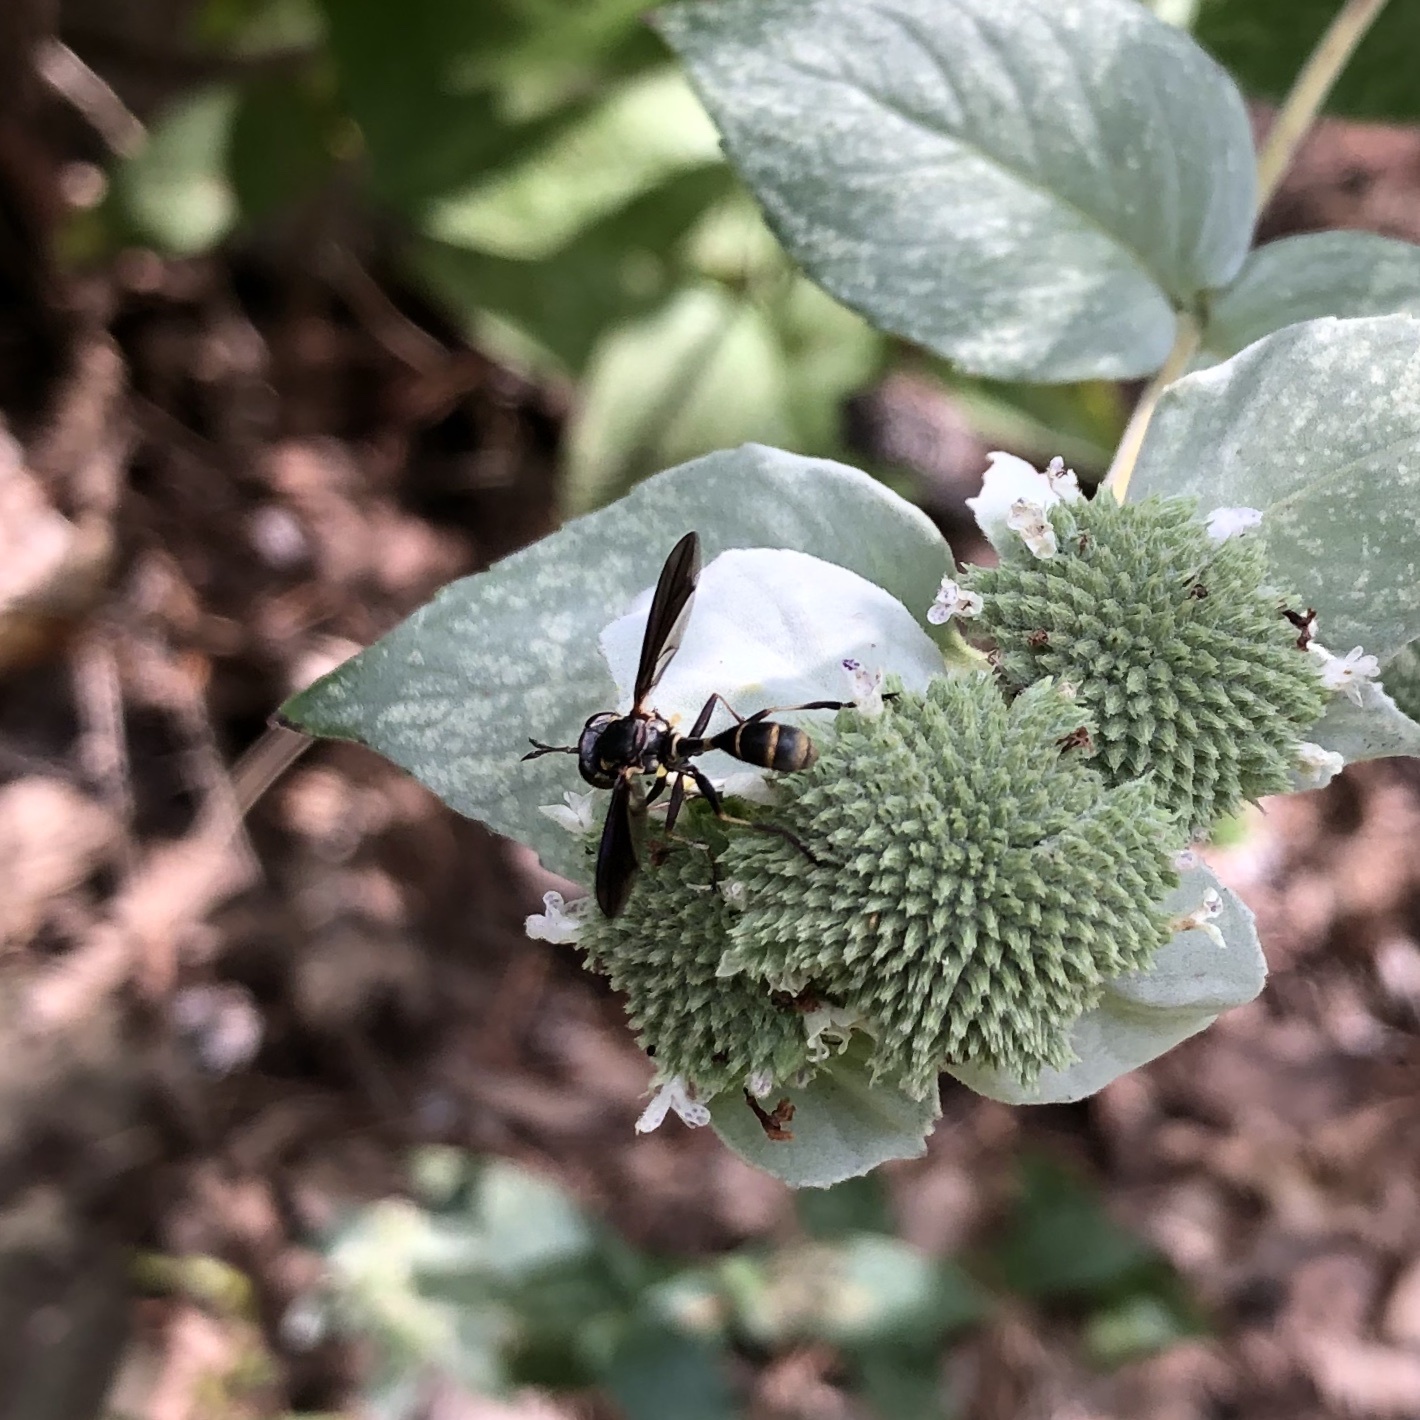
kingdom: Animalia
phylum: Arthropoda
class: Insecta
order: Diptera
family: Conopidae
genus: Physocephala
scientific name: Physocephala tibialis
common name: Common eastern physocephala
